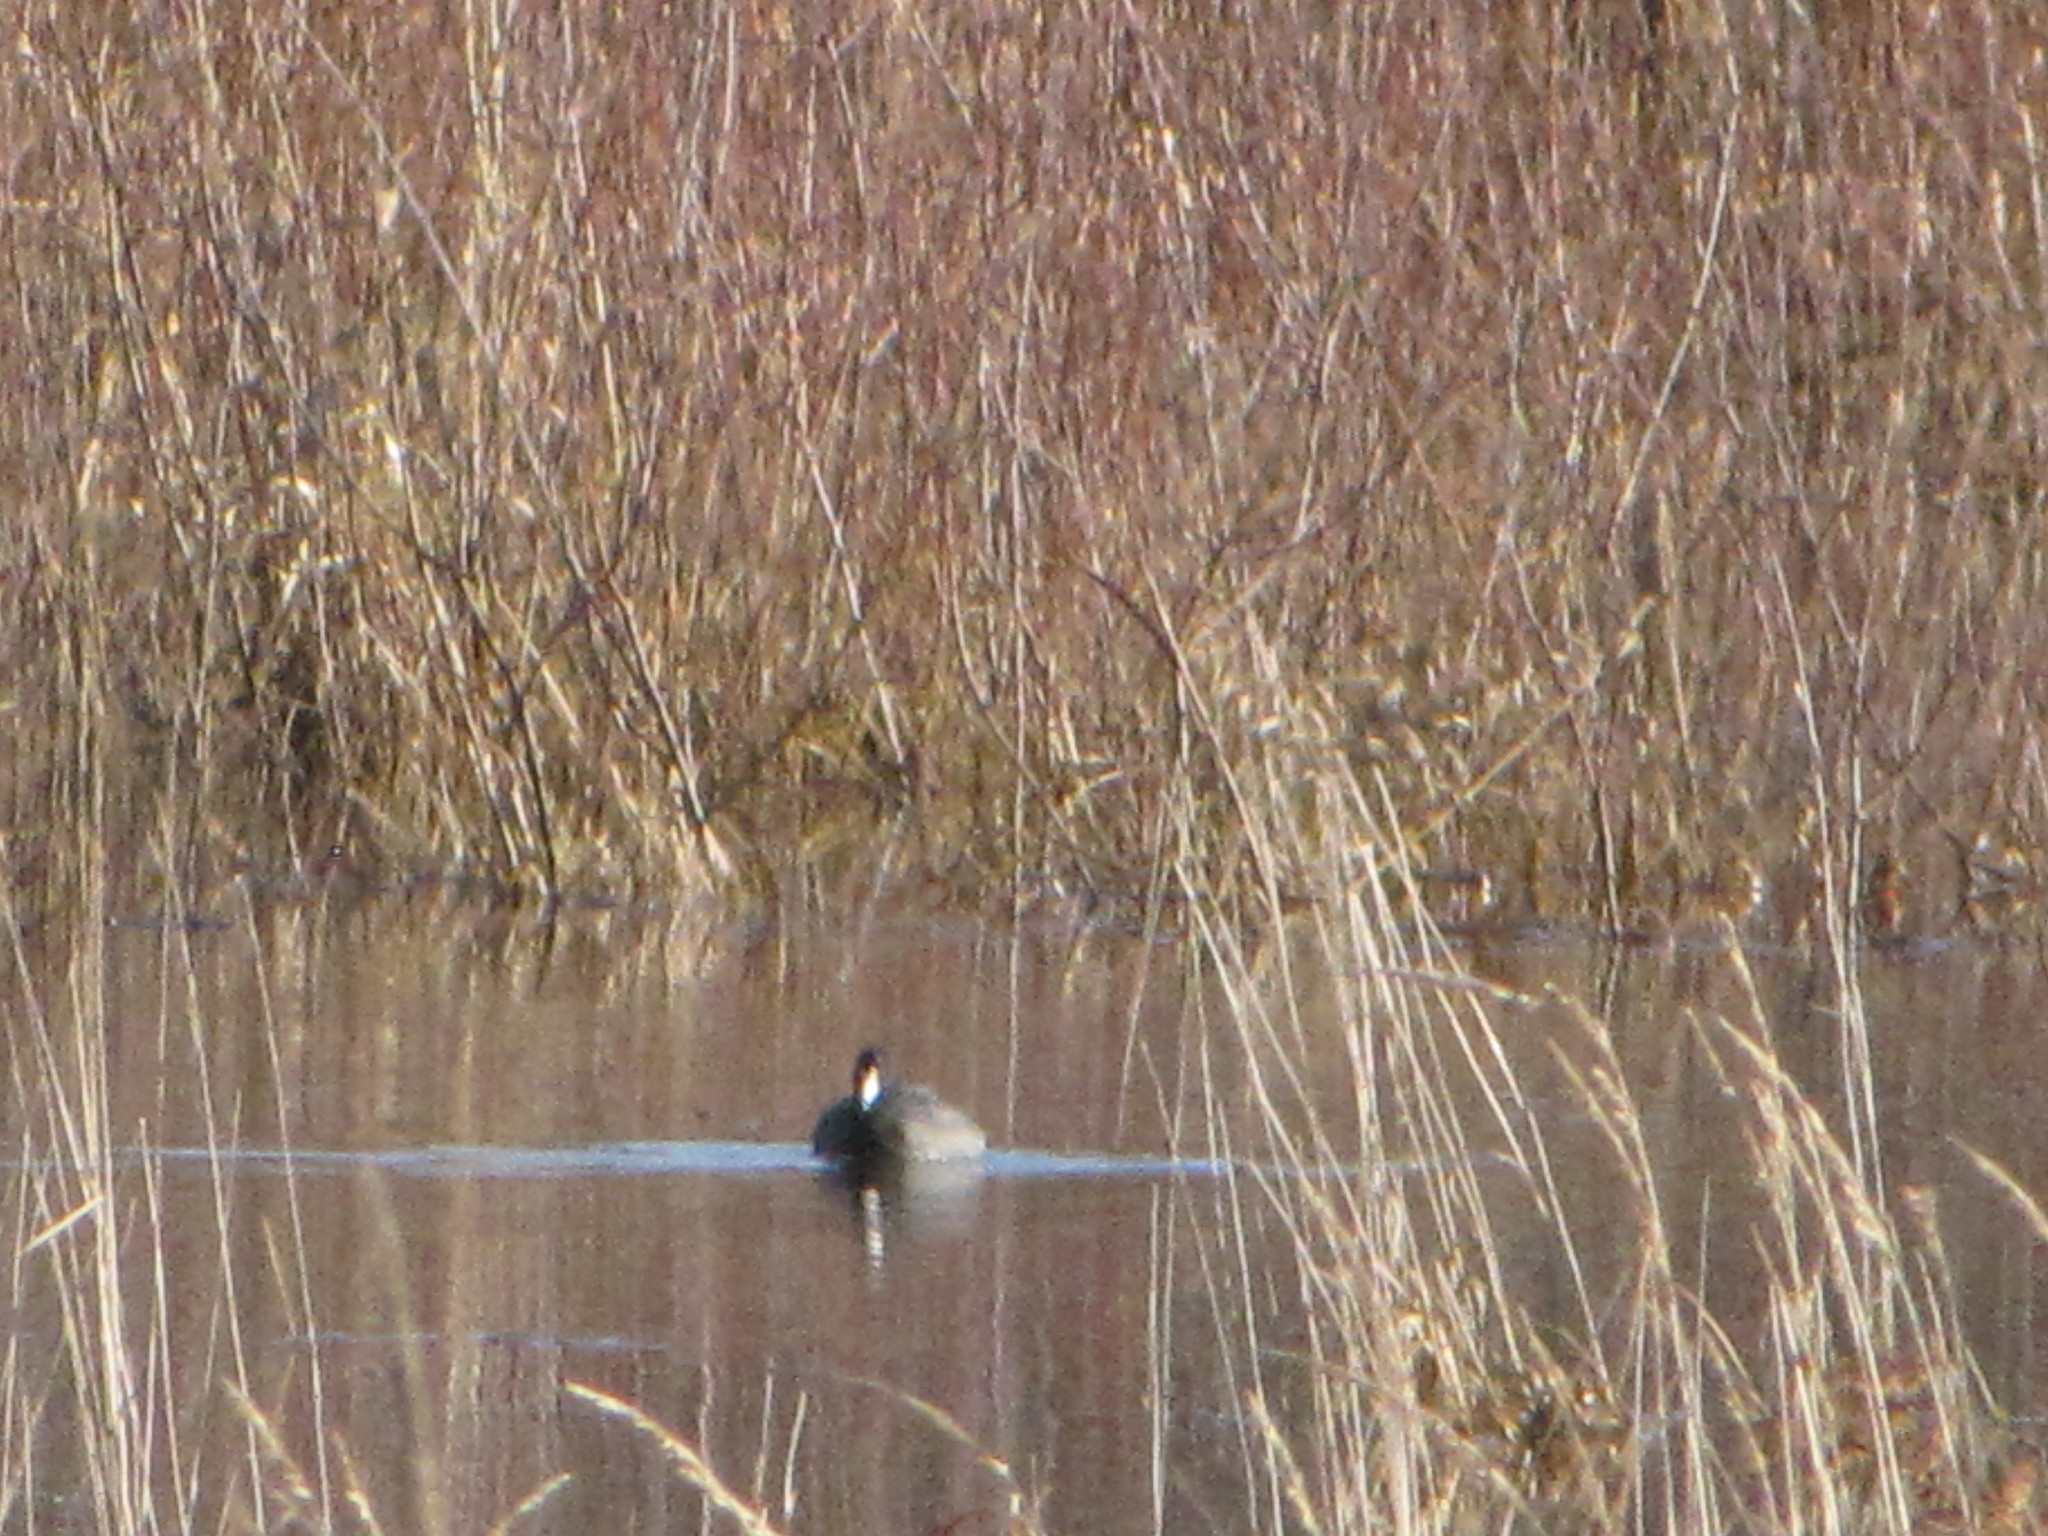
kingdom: Animalia
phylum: Chordata
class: Aves
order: Gruiformes
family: Rallidae
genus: Fulica
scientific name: Fulica americana
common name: American coot
